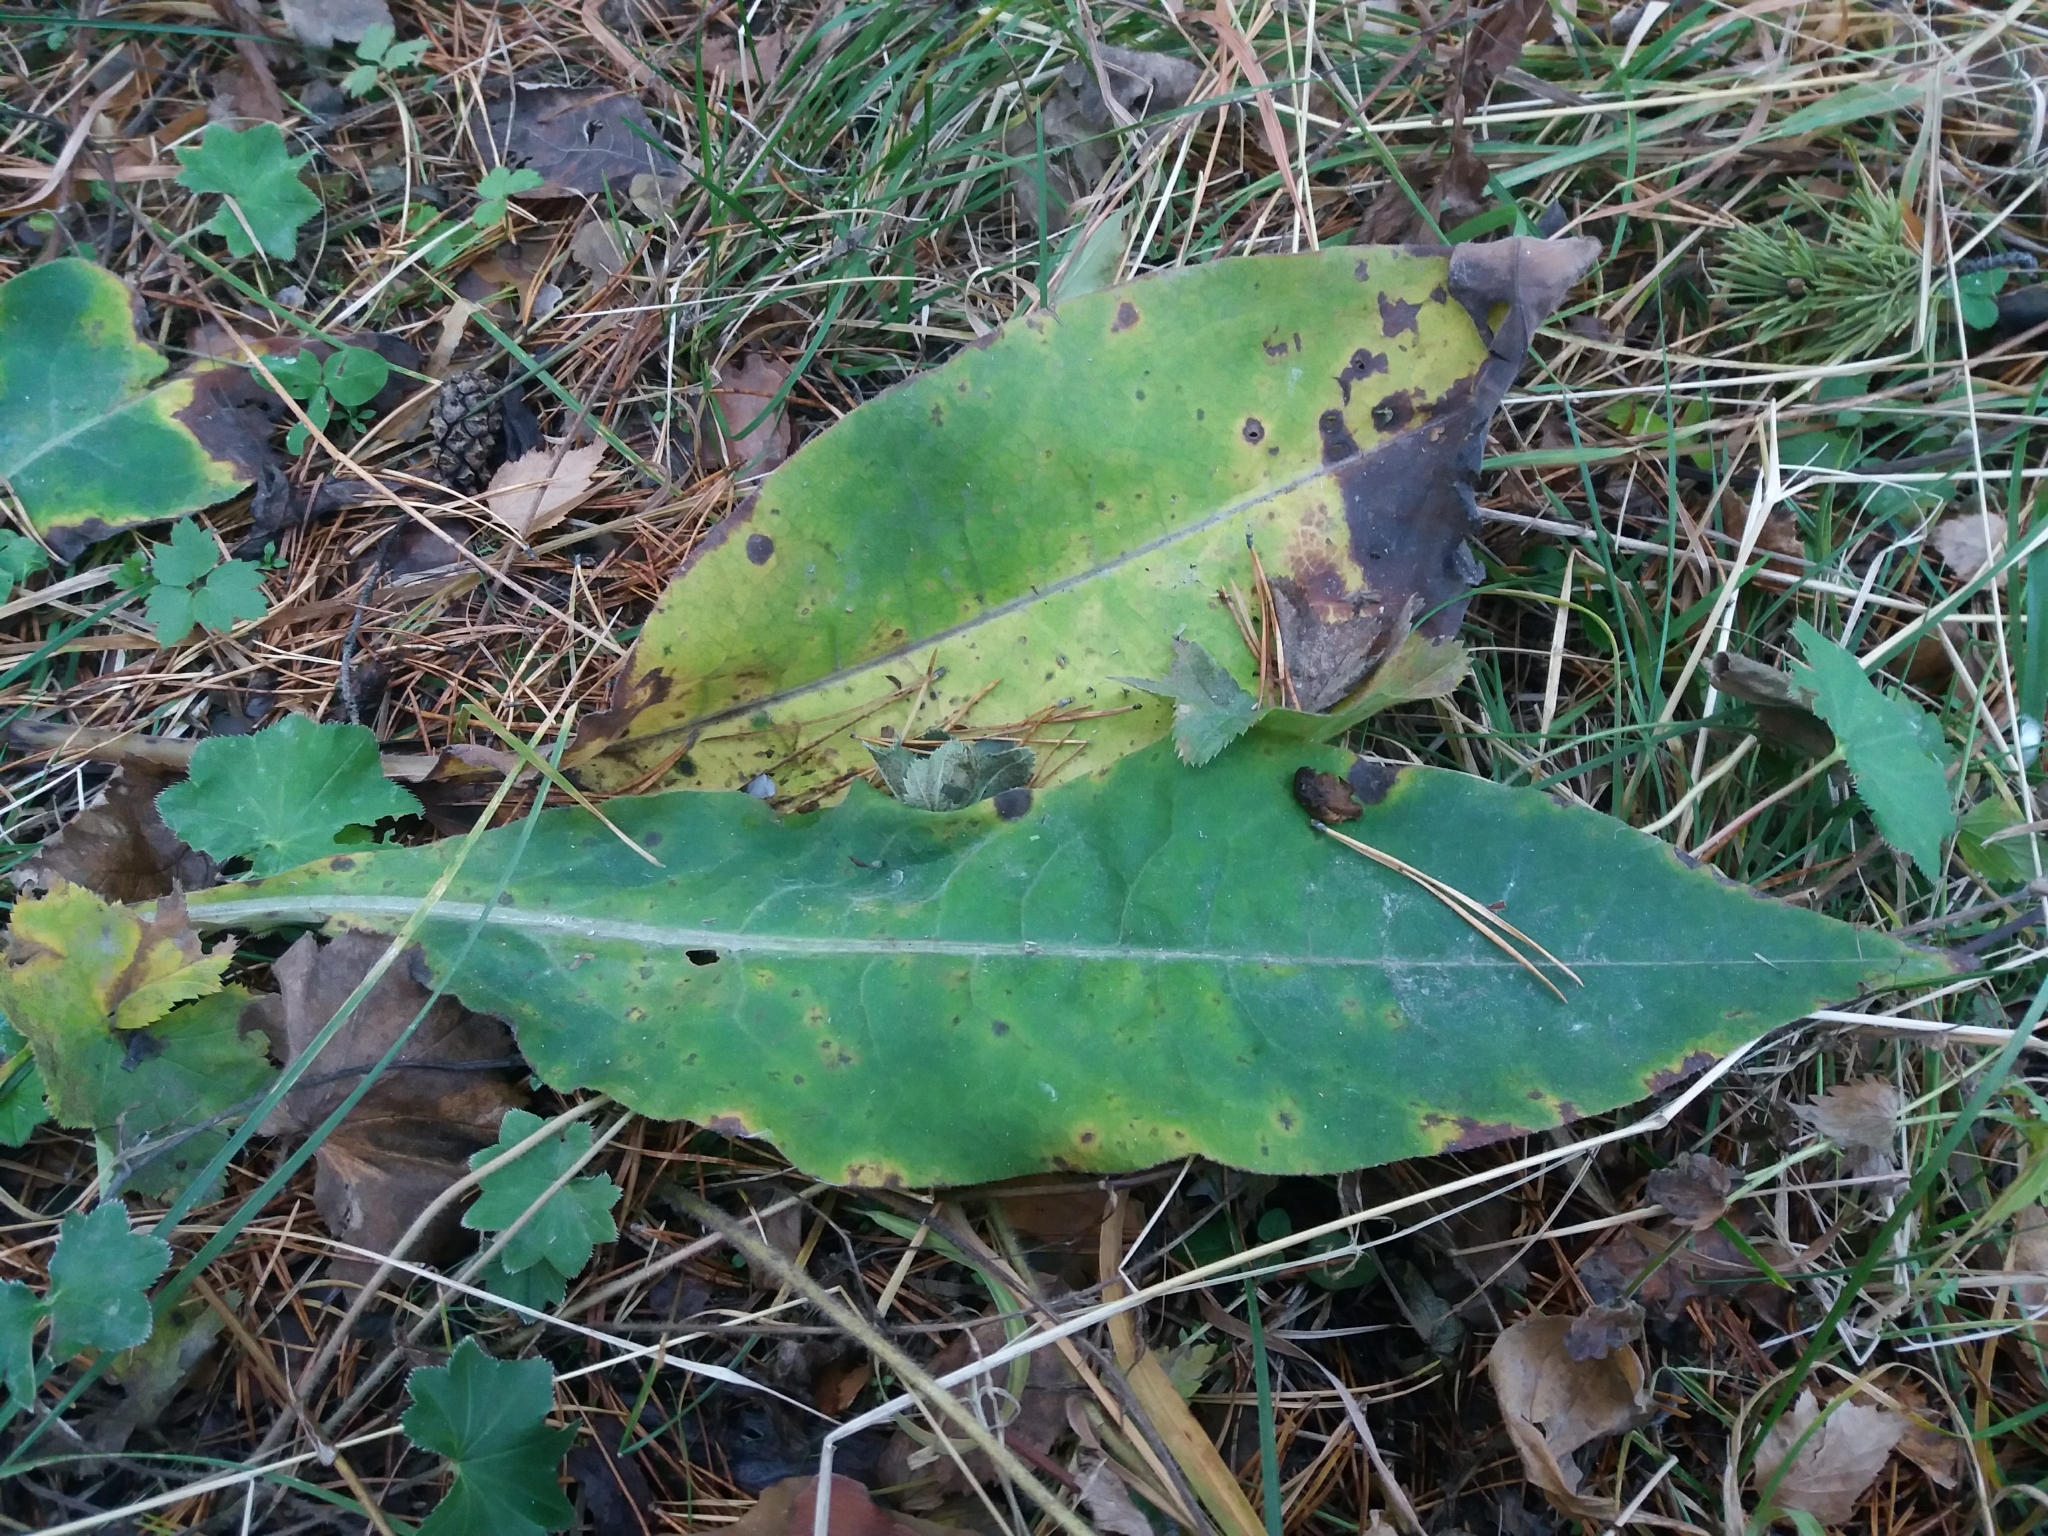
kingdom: Plantae
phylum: Tracheophyta
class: Magnoliopsida
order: Boraginales
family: Boraginaceae
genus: Pulmonaria
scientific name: Pulmonaria mollis
